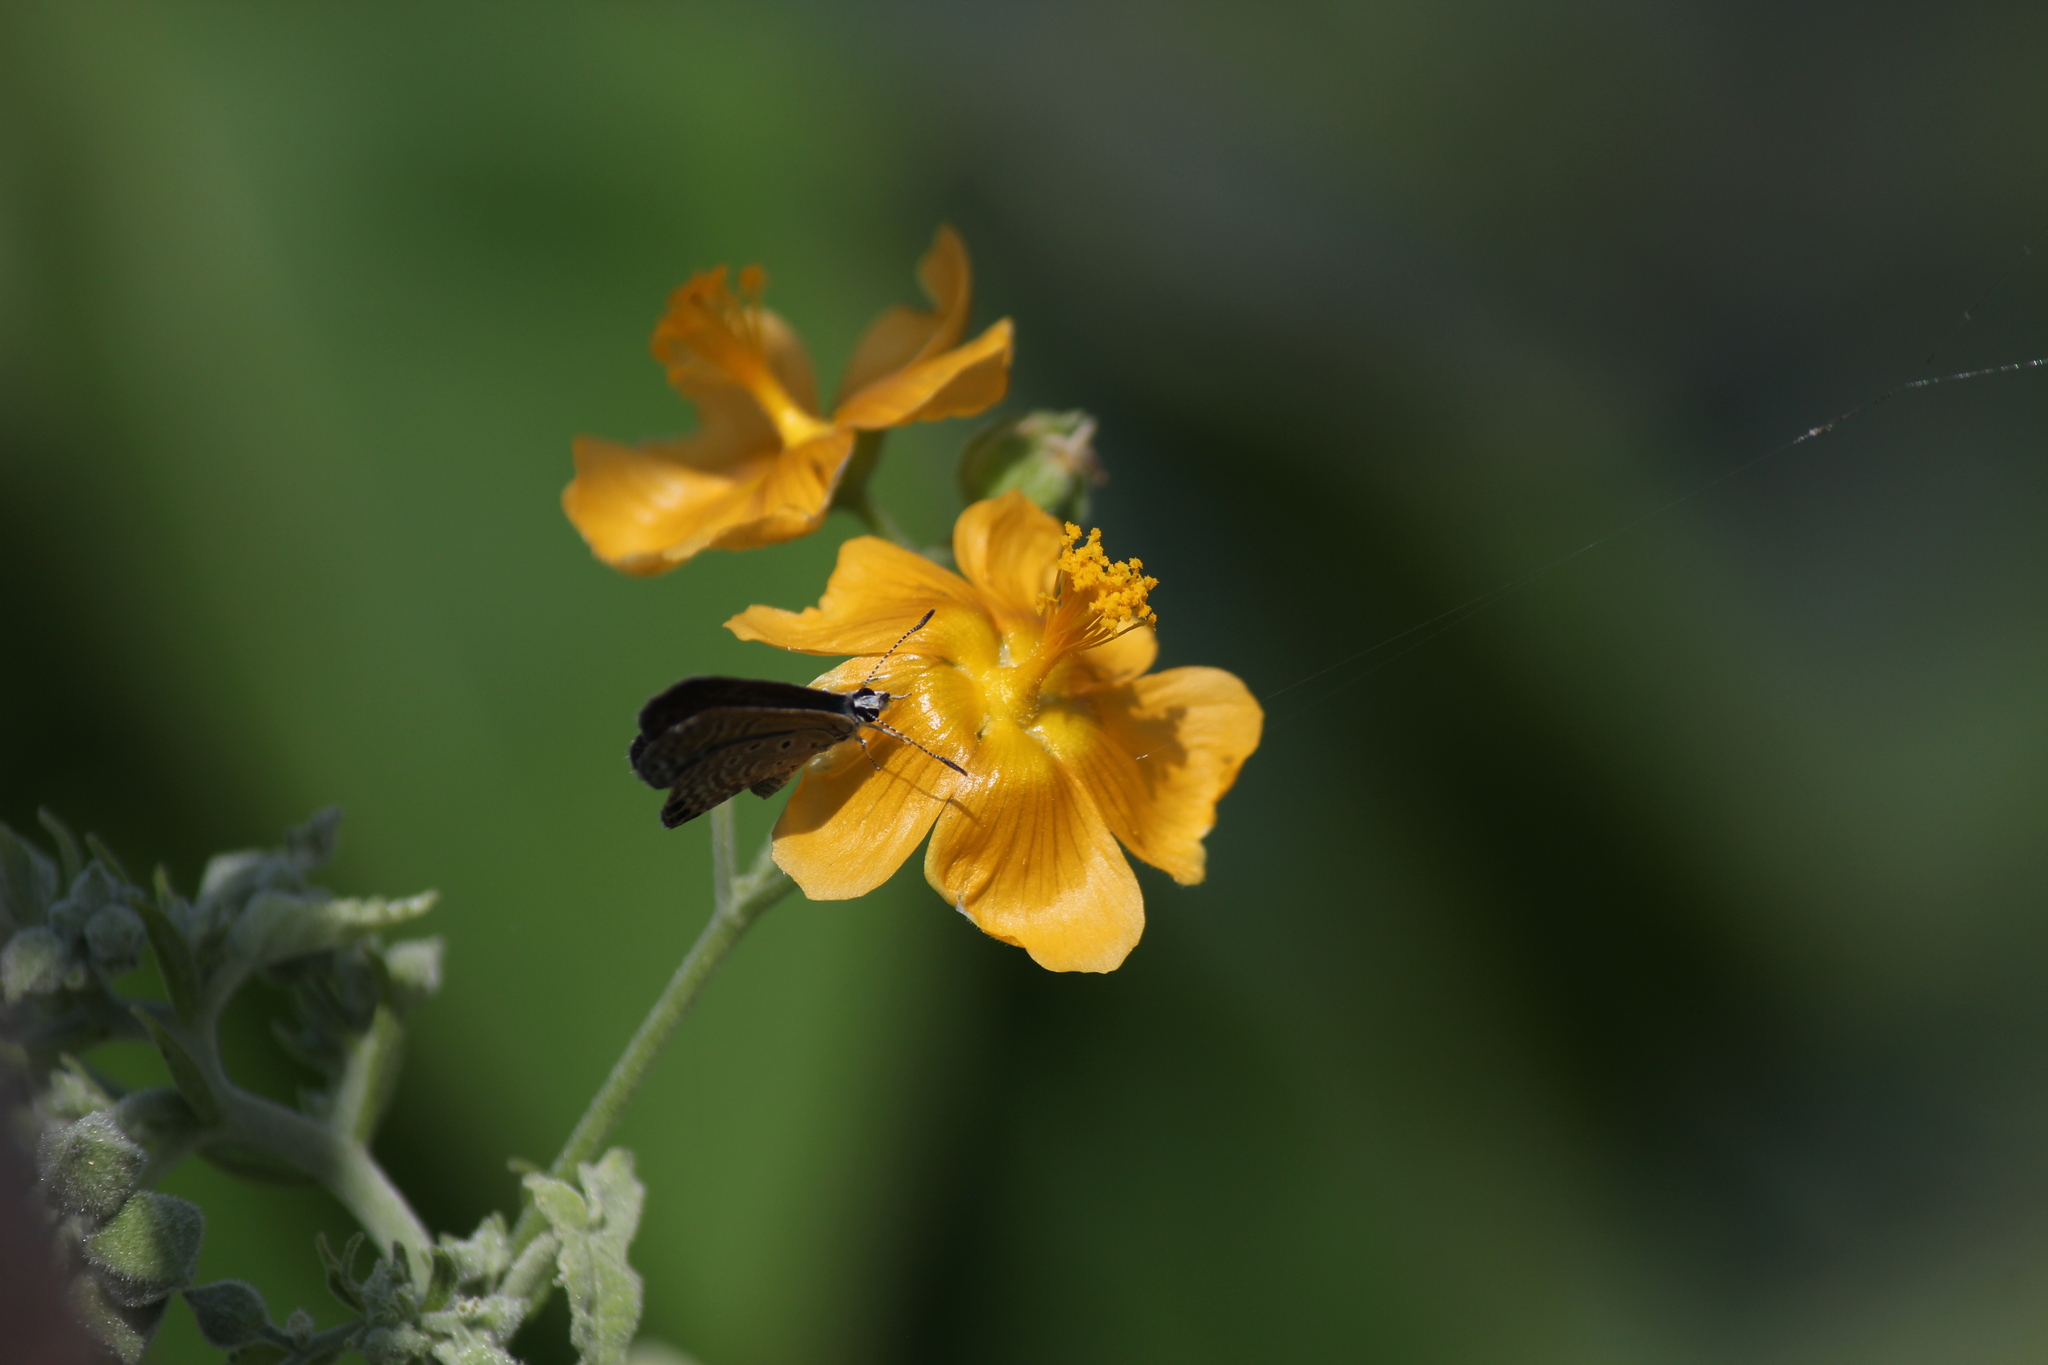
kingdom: Animalia
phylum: Arthropoda
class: Insecta
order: Lepidoptera
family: Lycaenidae
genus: Hemiargus
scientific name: Hemiargus ramon
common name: Ramon blue
